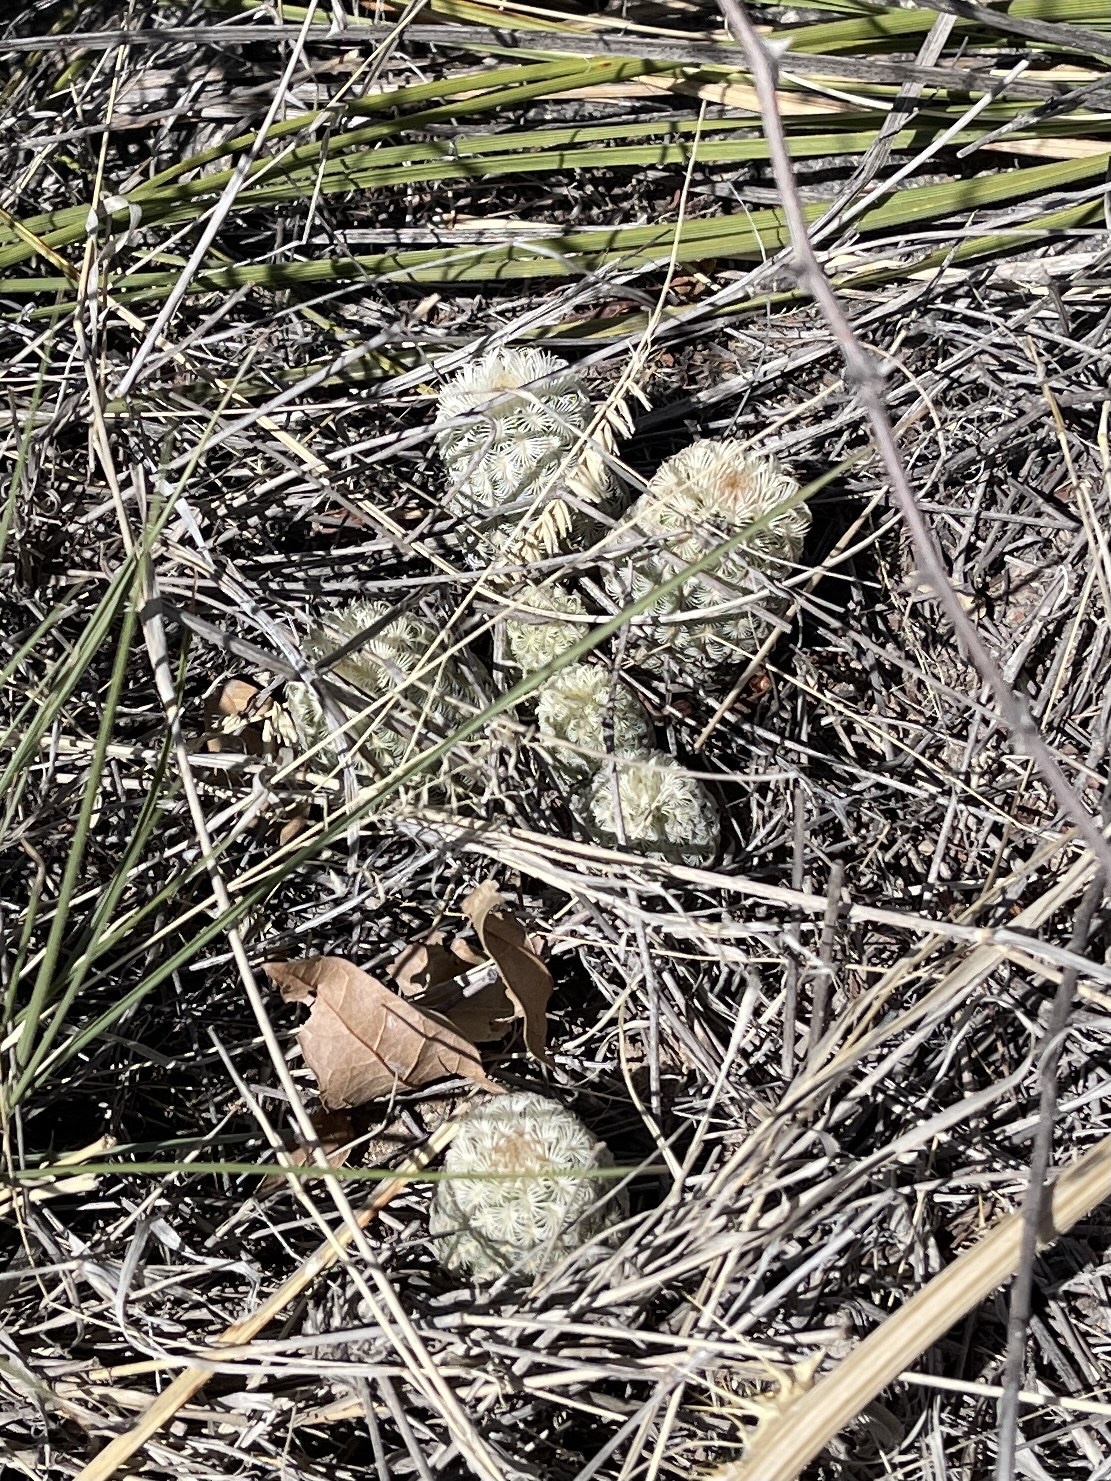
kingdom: Plantae
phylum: Tracheophyta
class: Magnoliopsida
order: Caryophyllales
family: Cactaceae
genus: Echinocereus
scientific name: Echinocereus rigidissimus
